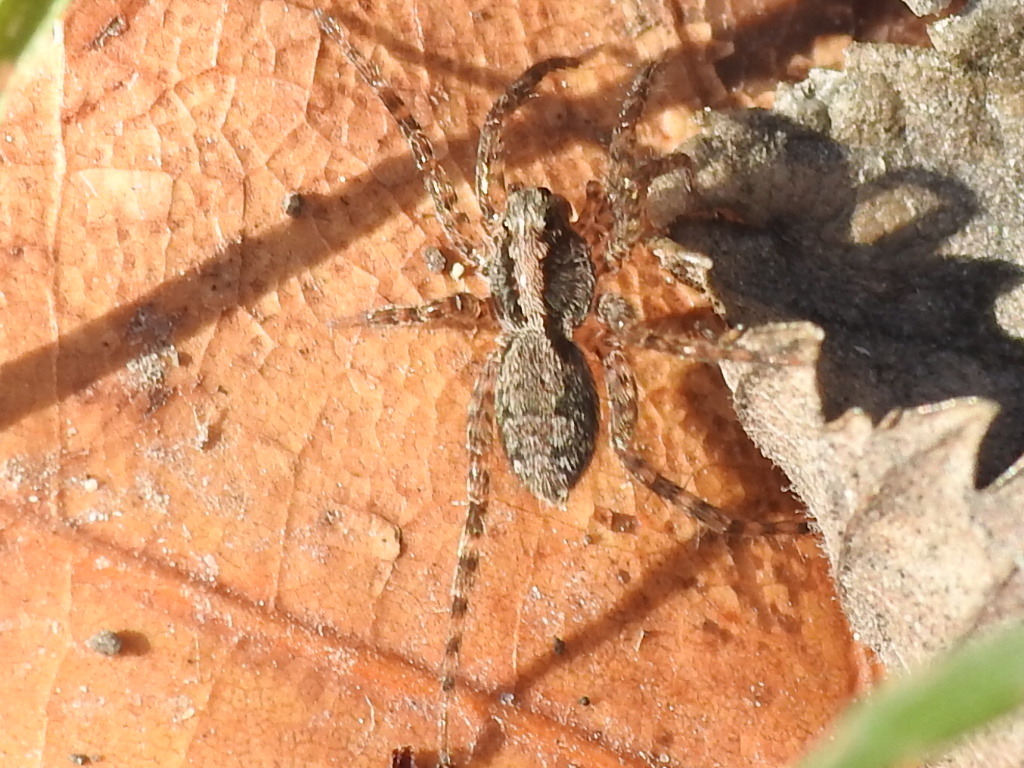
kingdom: Animalia
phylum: Arthropoda
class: Arachnida
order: Araneae
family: Lycosidae
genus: Pardosa
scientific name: Pardosa milvina
